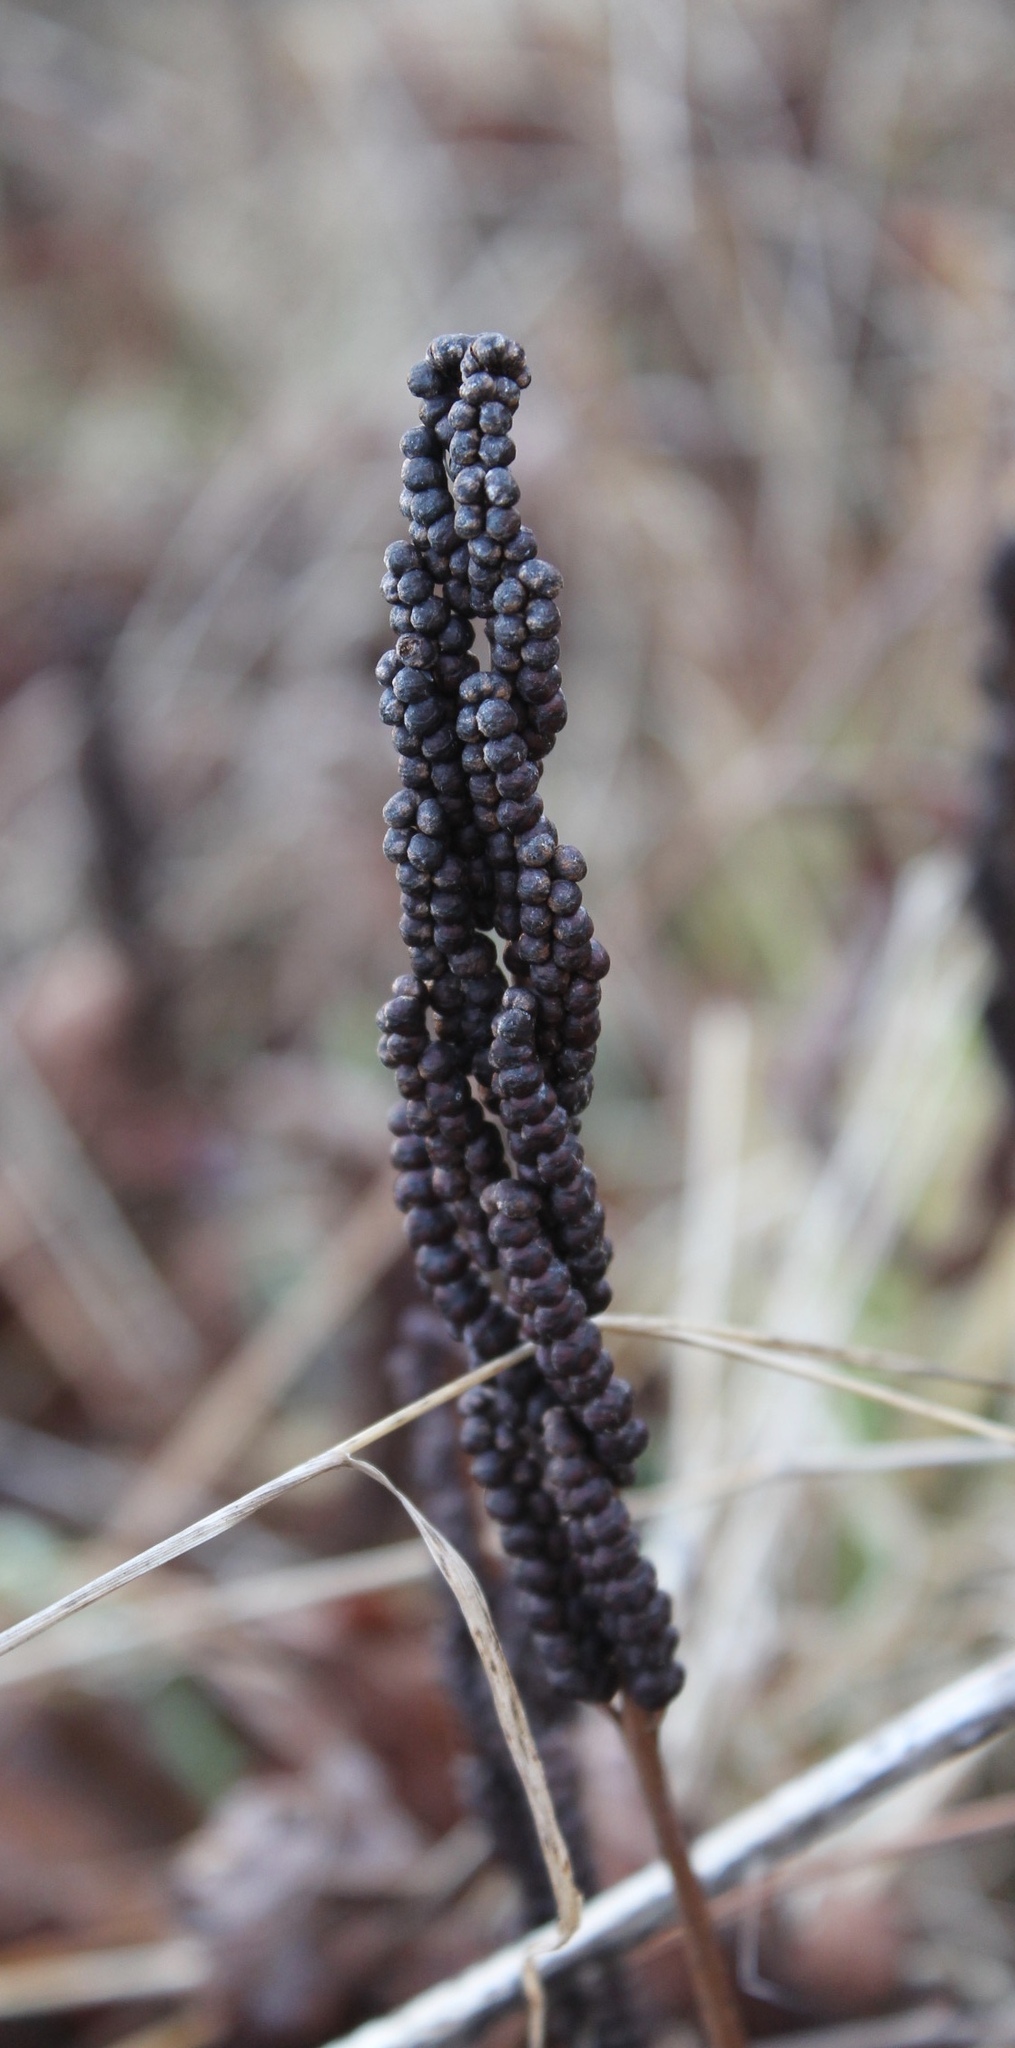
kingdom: Plantae
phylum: Tracheophyta
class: Polypodiopsida
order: Polypodiales
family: Onocleaceae
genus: Onoclea
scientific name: Onoclea sensibilis
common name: Sensitive fern
